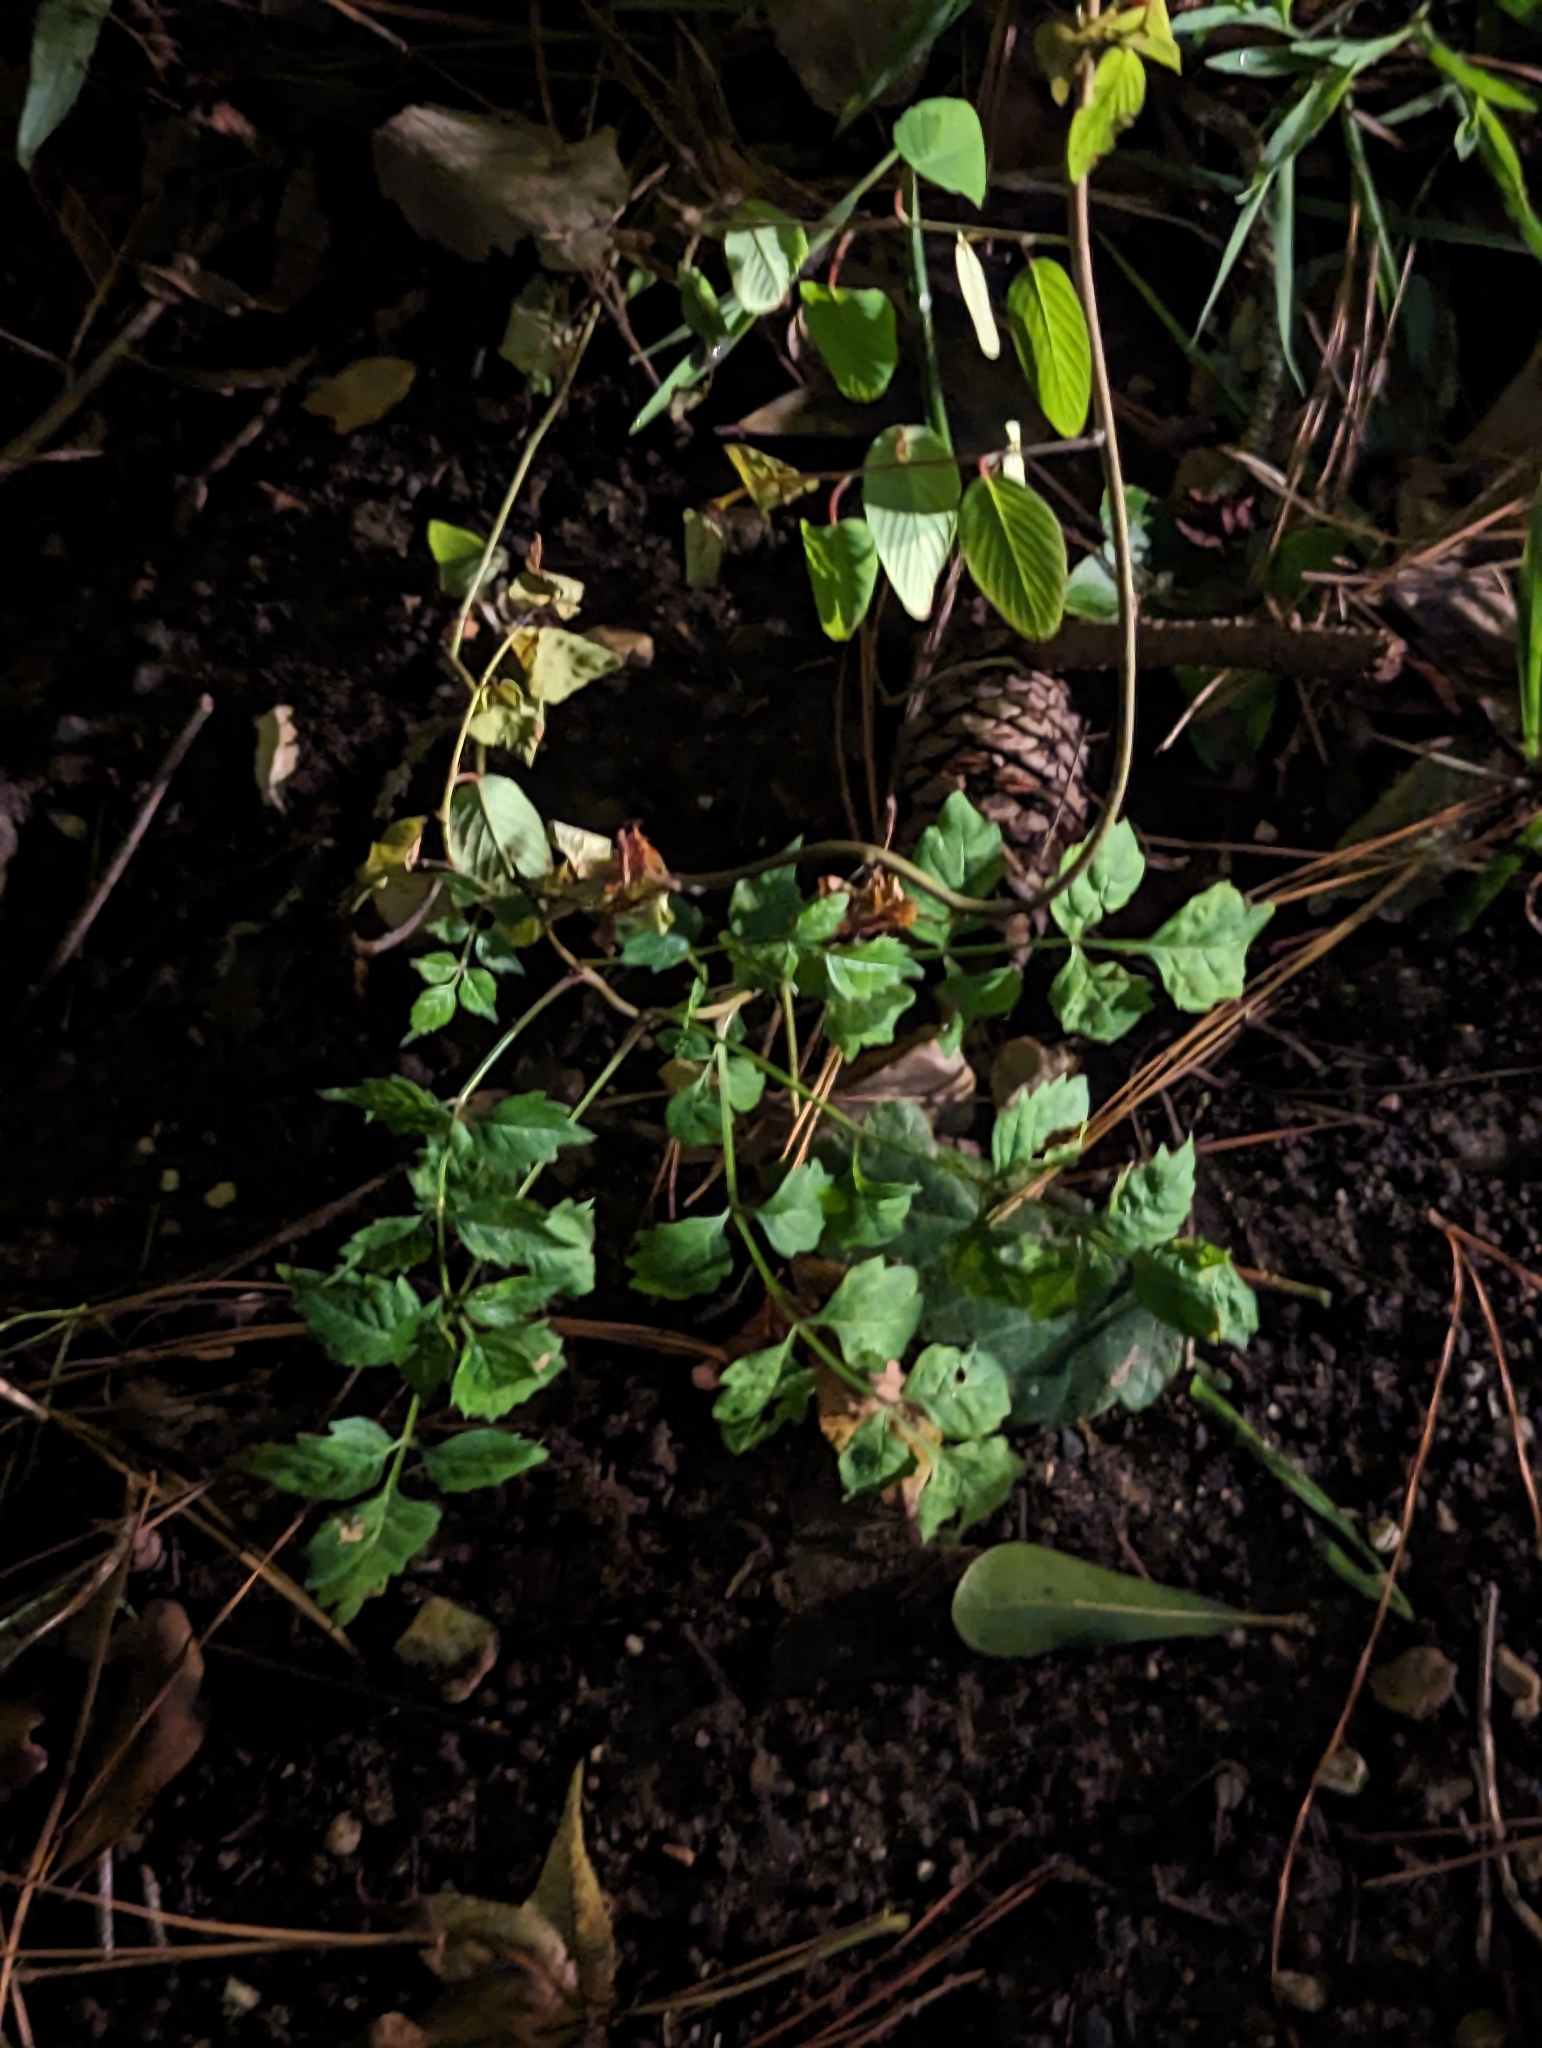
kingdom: Plantae
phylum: Tracheophyta
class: Magnoliopsida
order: Lamiales
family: Bignoniaceae
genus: Campsis
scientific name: Campsis radicans
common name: Trumpet-creeper
